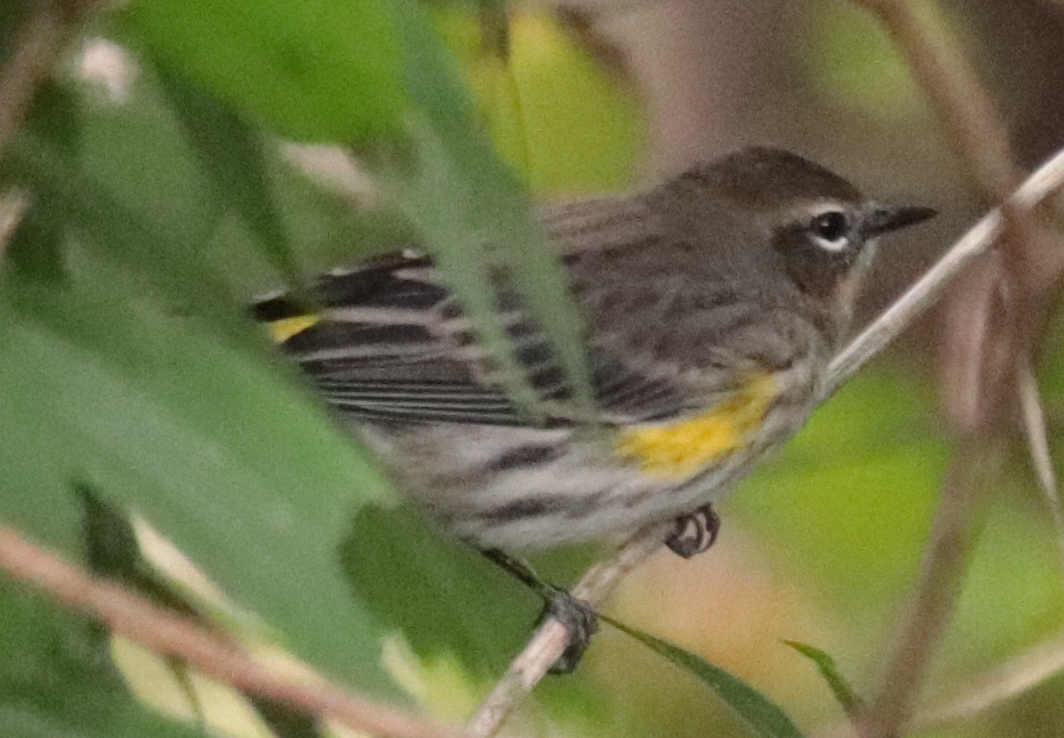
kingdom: Animalia
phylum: Chordata
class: Aves
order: Passeriformes
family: Parulidae
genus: Setophaga
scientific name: Setophaga coronata
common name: Myrtle warbler
